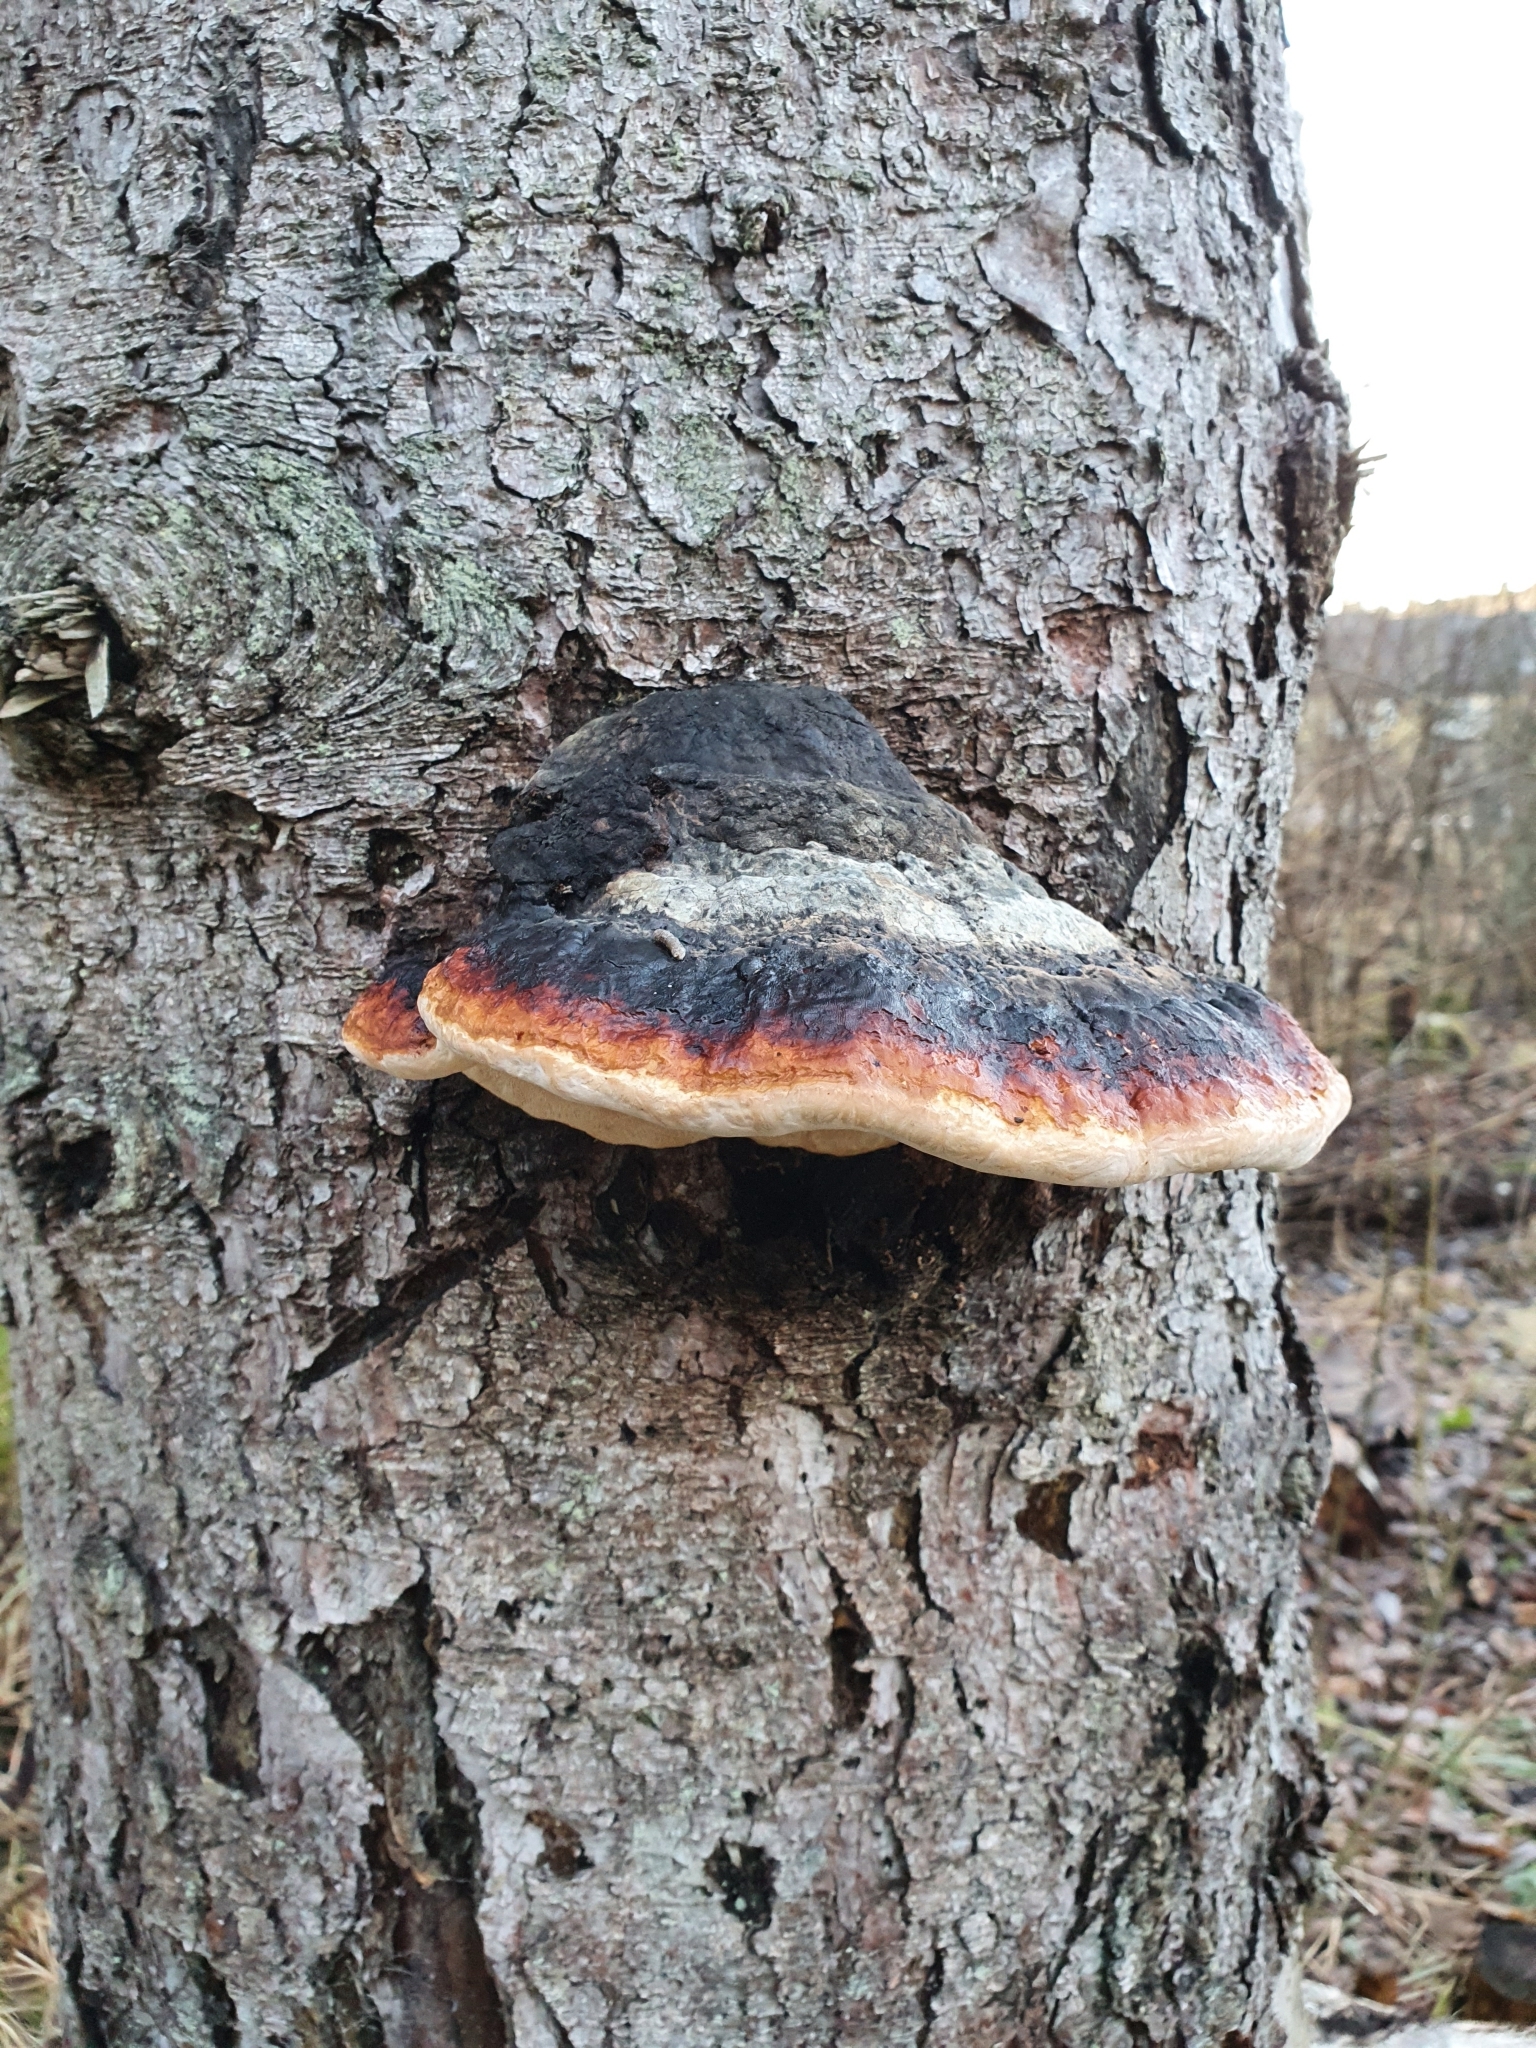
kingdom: Fungi
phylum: Basidiomycota
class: Agaricomycetes
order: Polyporales
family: Fomitopsidaceae
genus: Fomitopsis
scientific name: Fomitopsis pinicola
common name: Red-belted bracket
